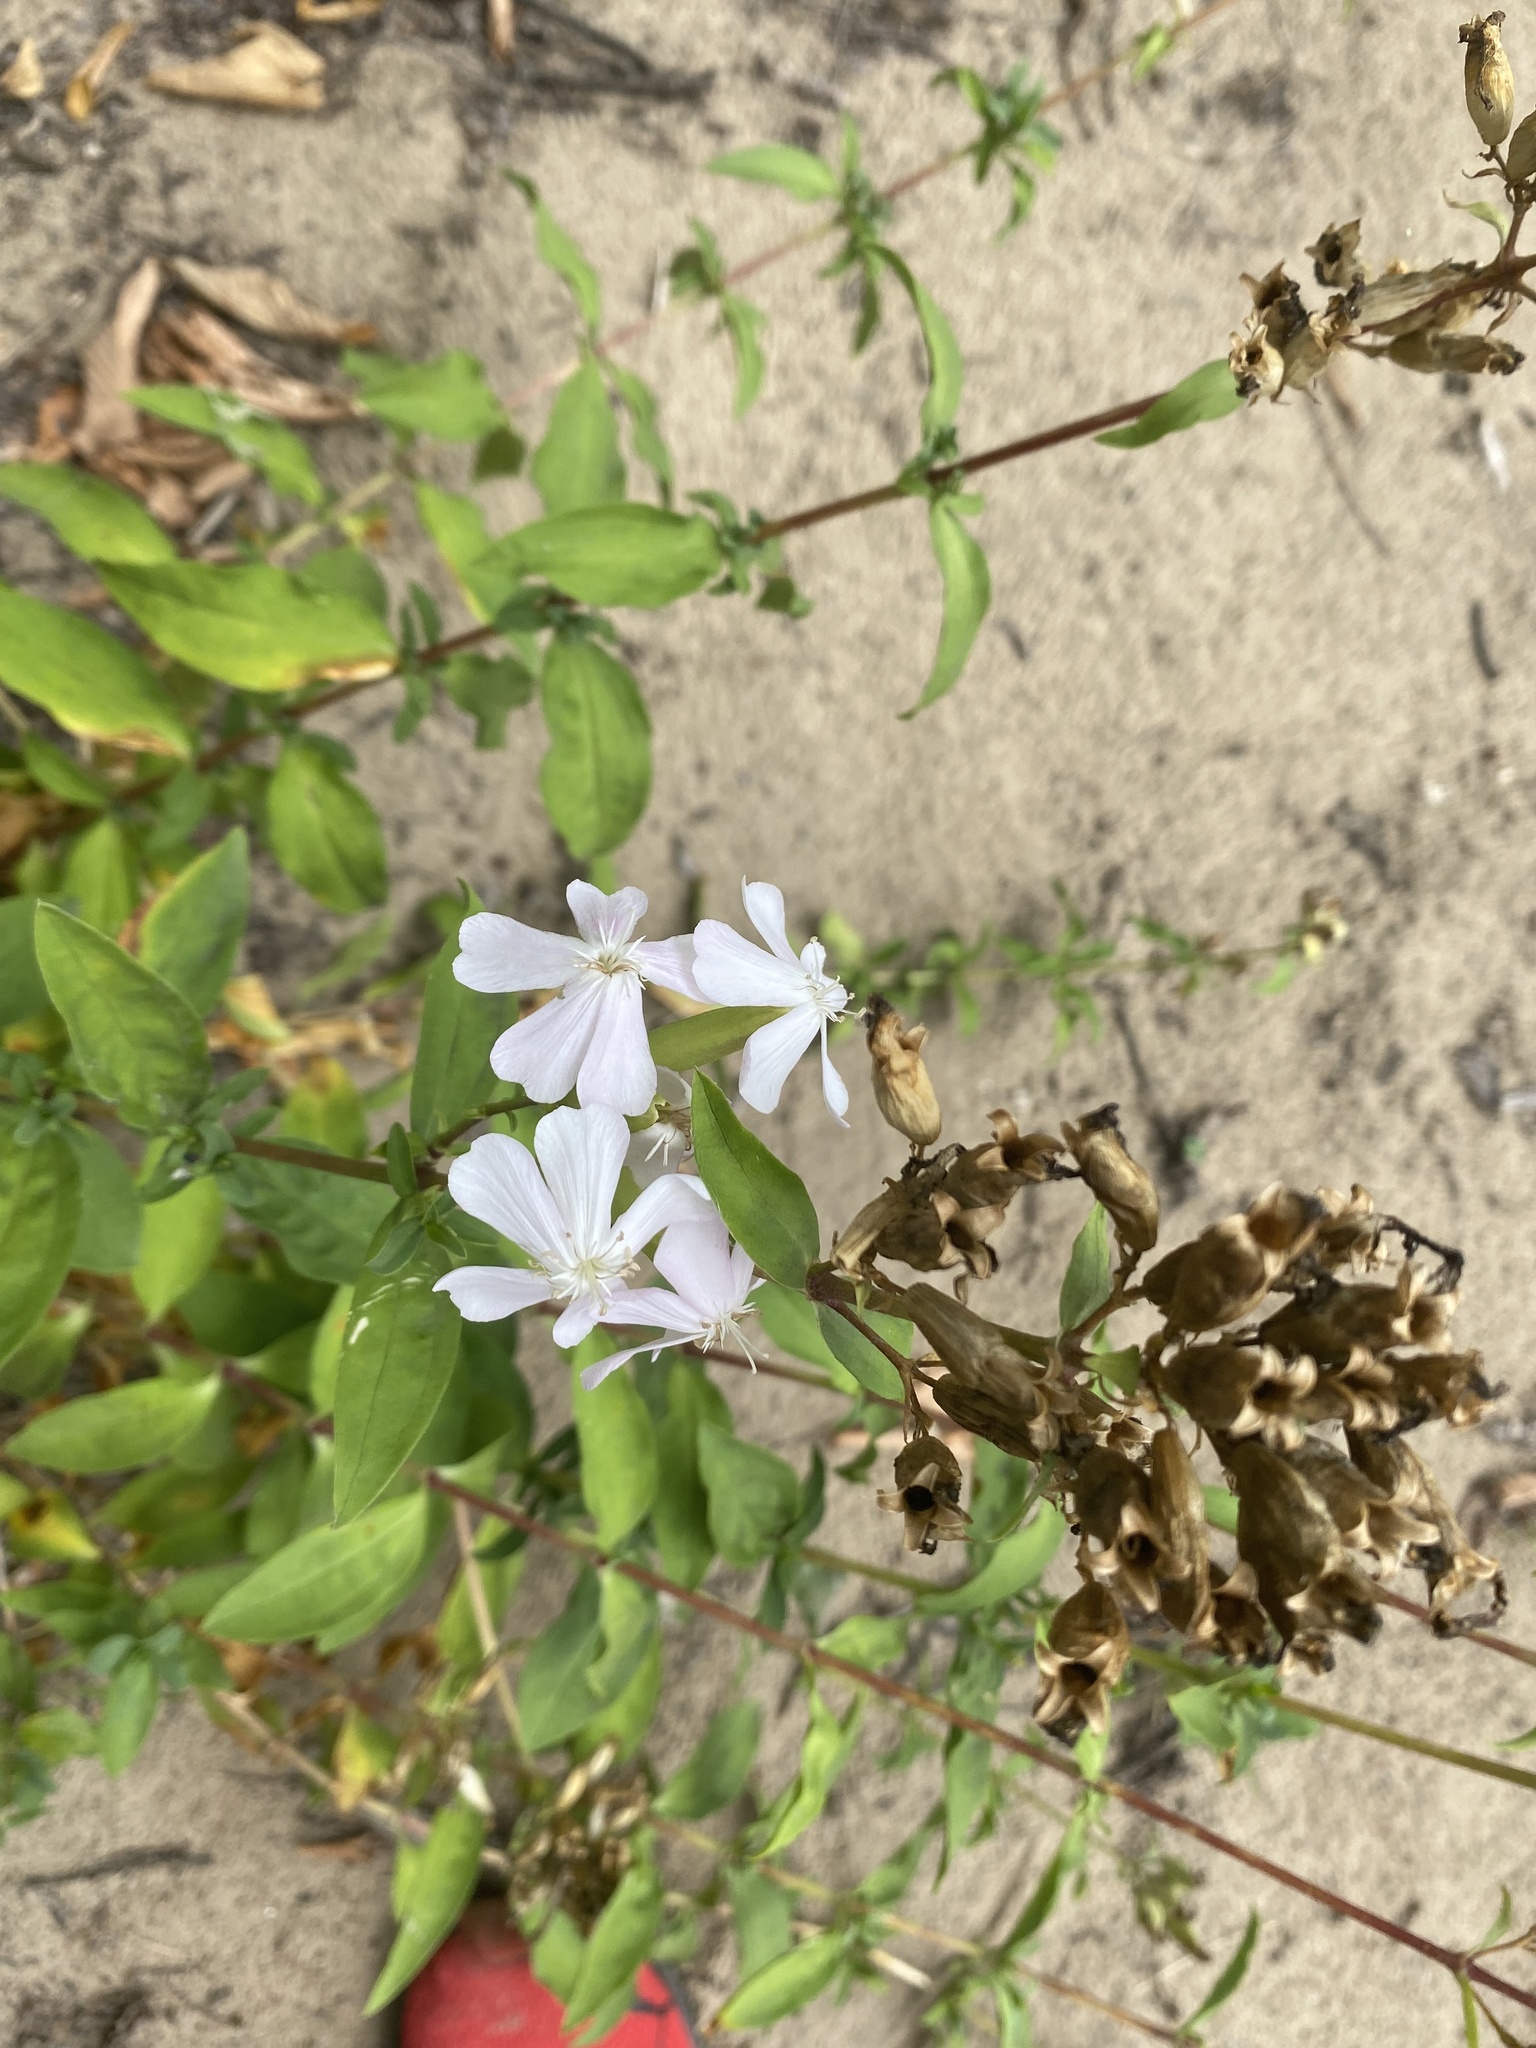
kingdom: Plantae
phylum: Tracheophyta
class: Magnoliopsida
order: Caryophyllales
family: Caryophyllaceae
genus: Saponaria
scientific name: Saponaria officinalis
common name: Soapwort
